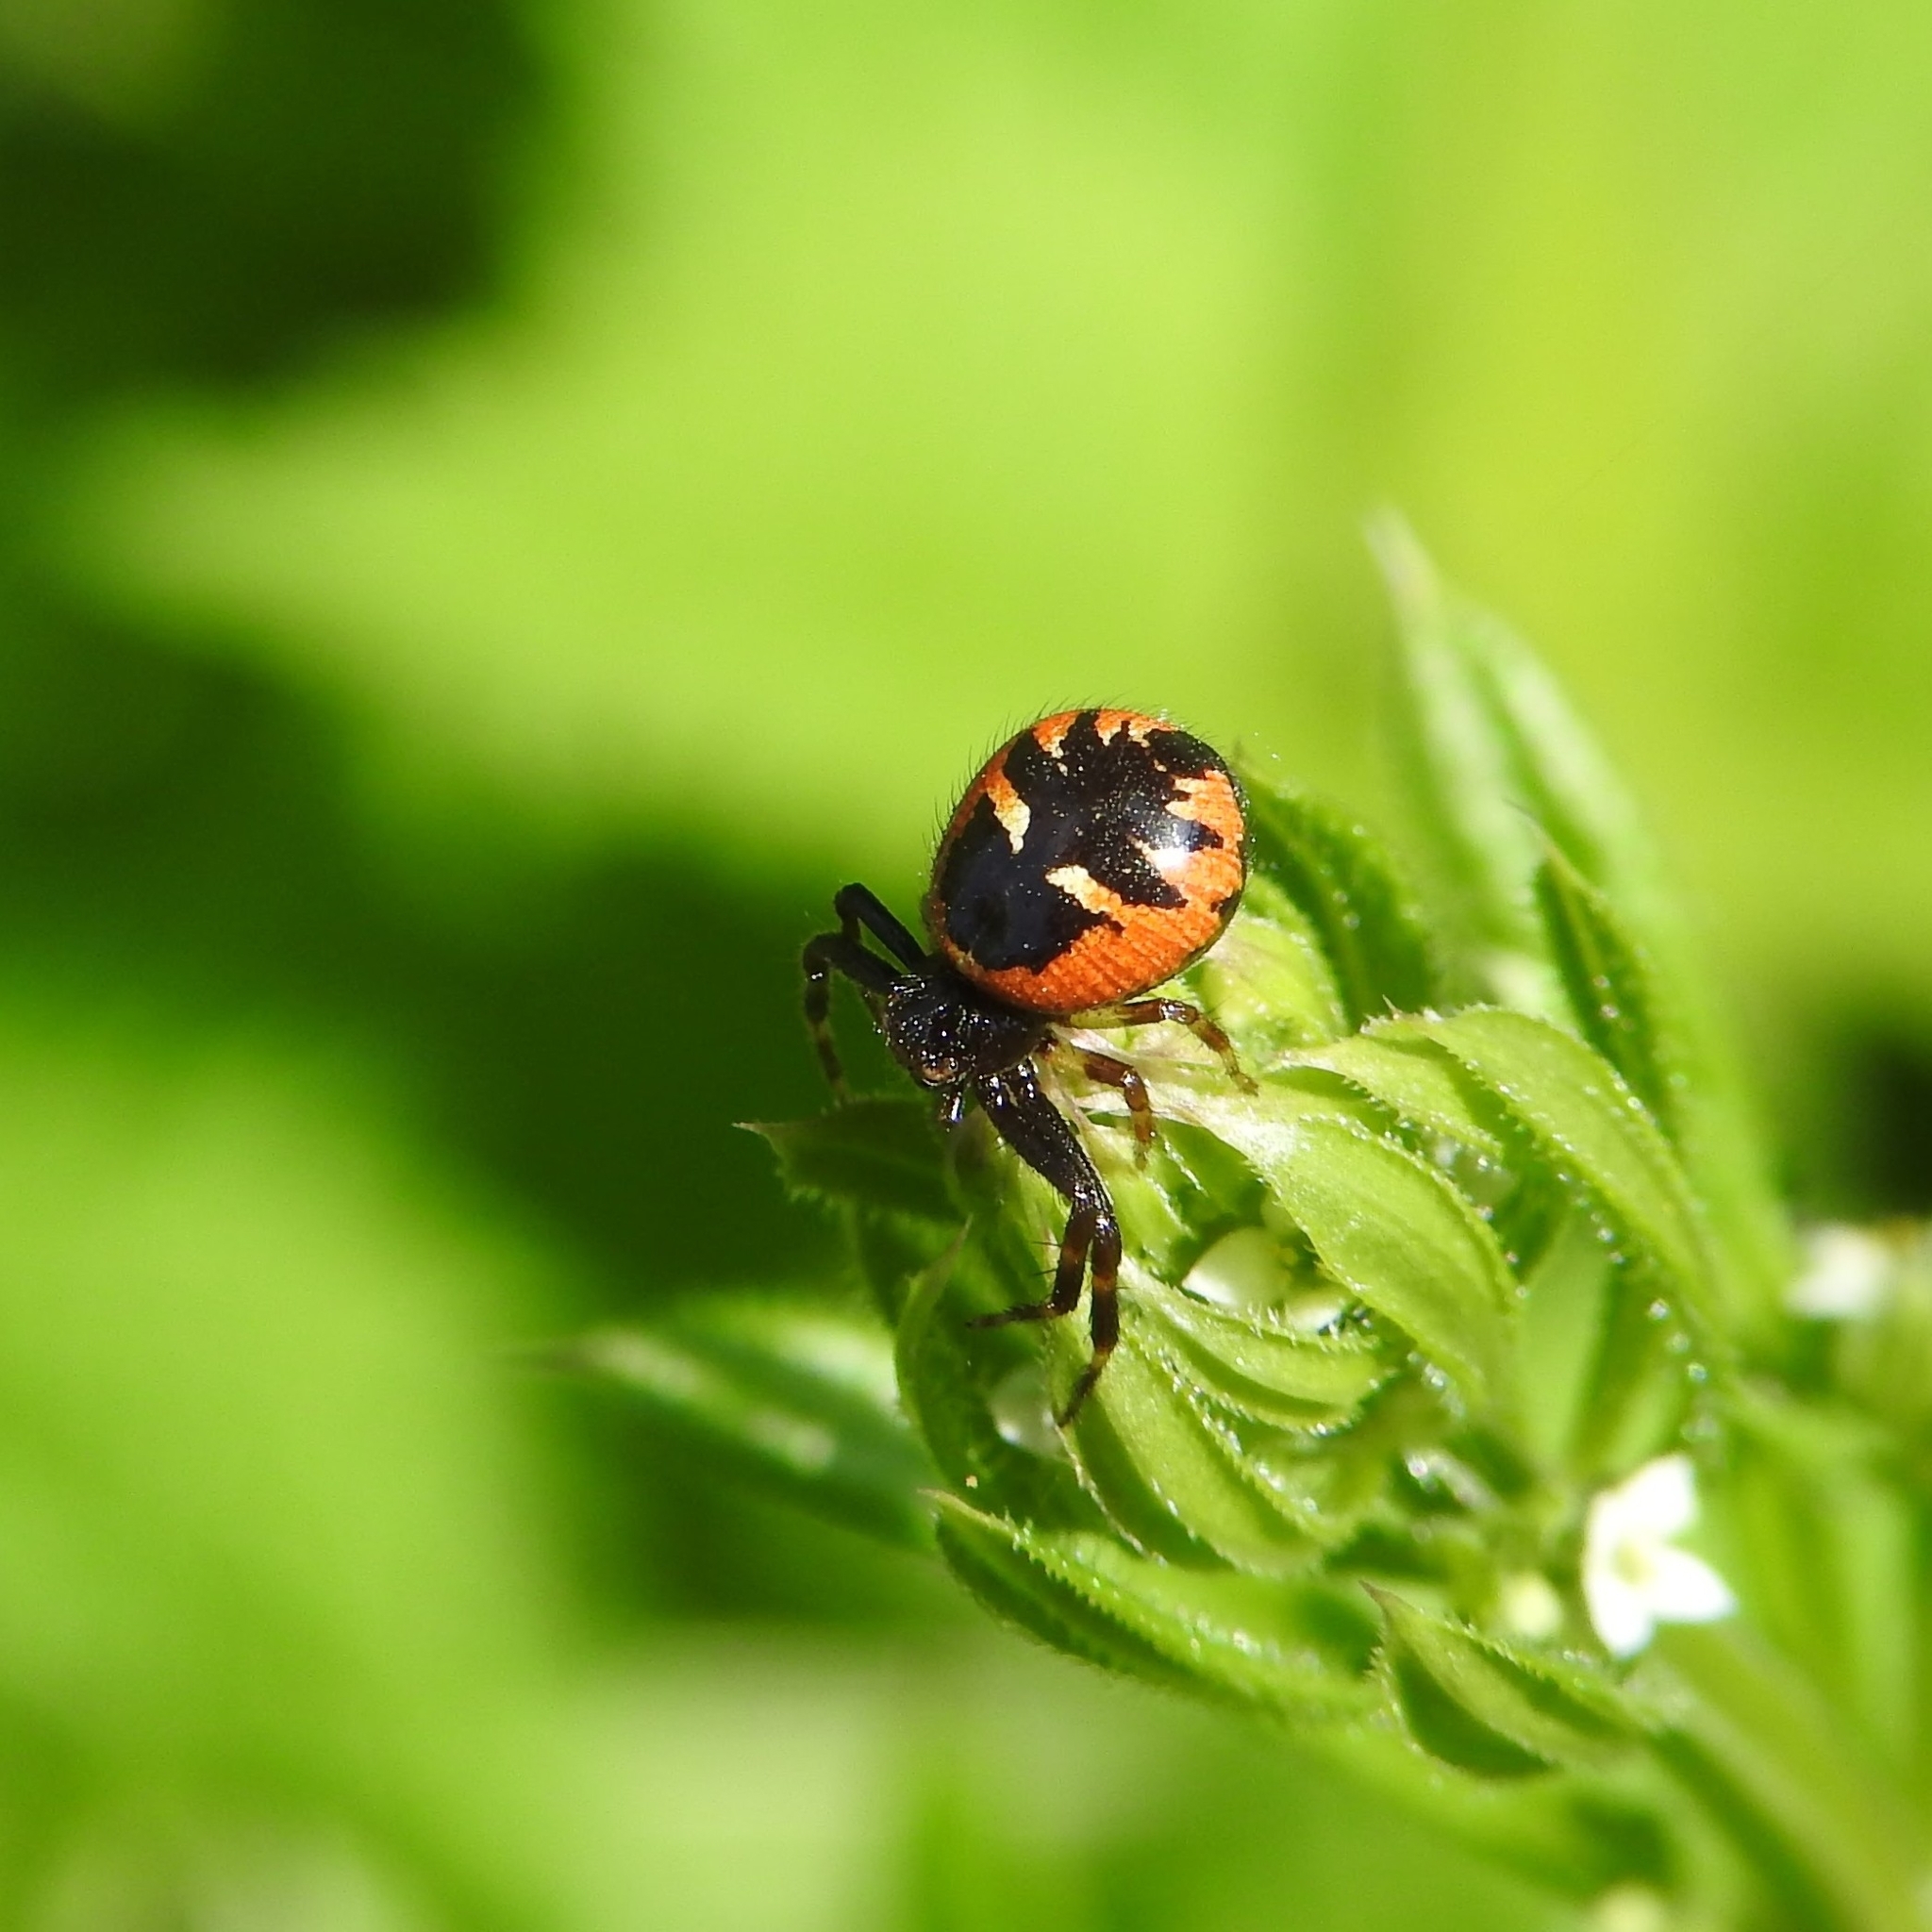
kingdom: Animalia
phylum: Arthropoda
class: Arachnida
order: Araneae
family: Thomisidae
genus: Synema
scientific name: Synema globosum
